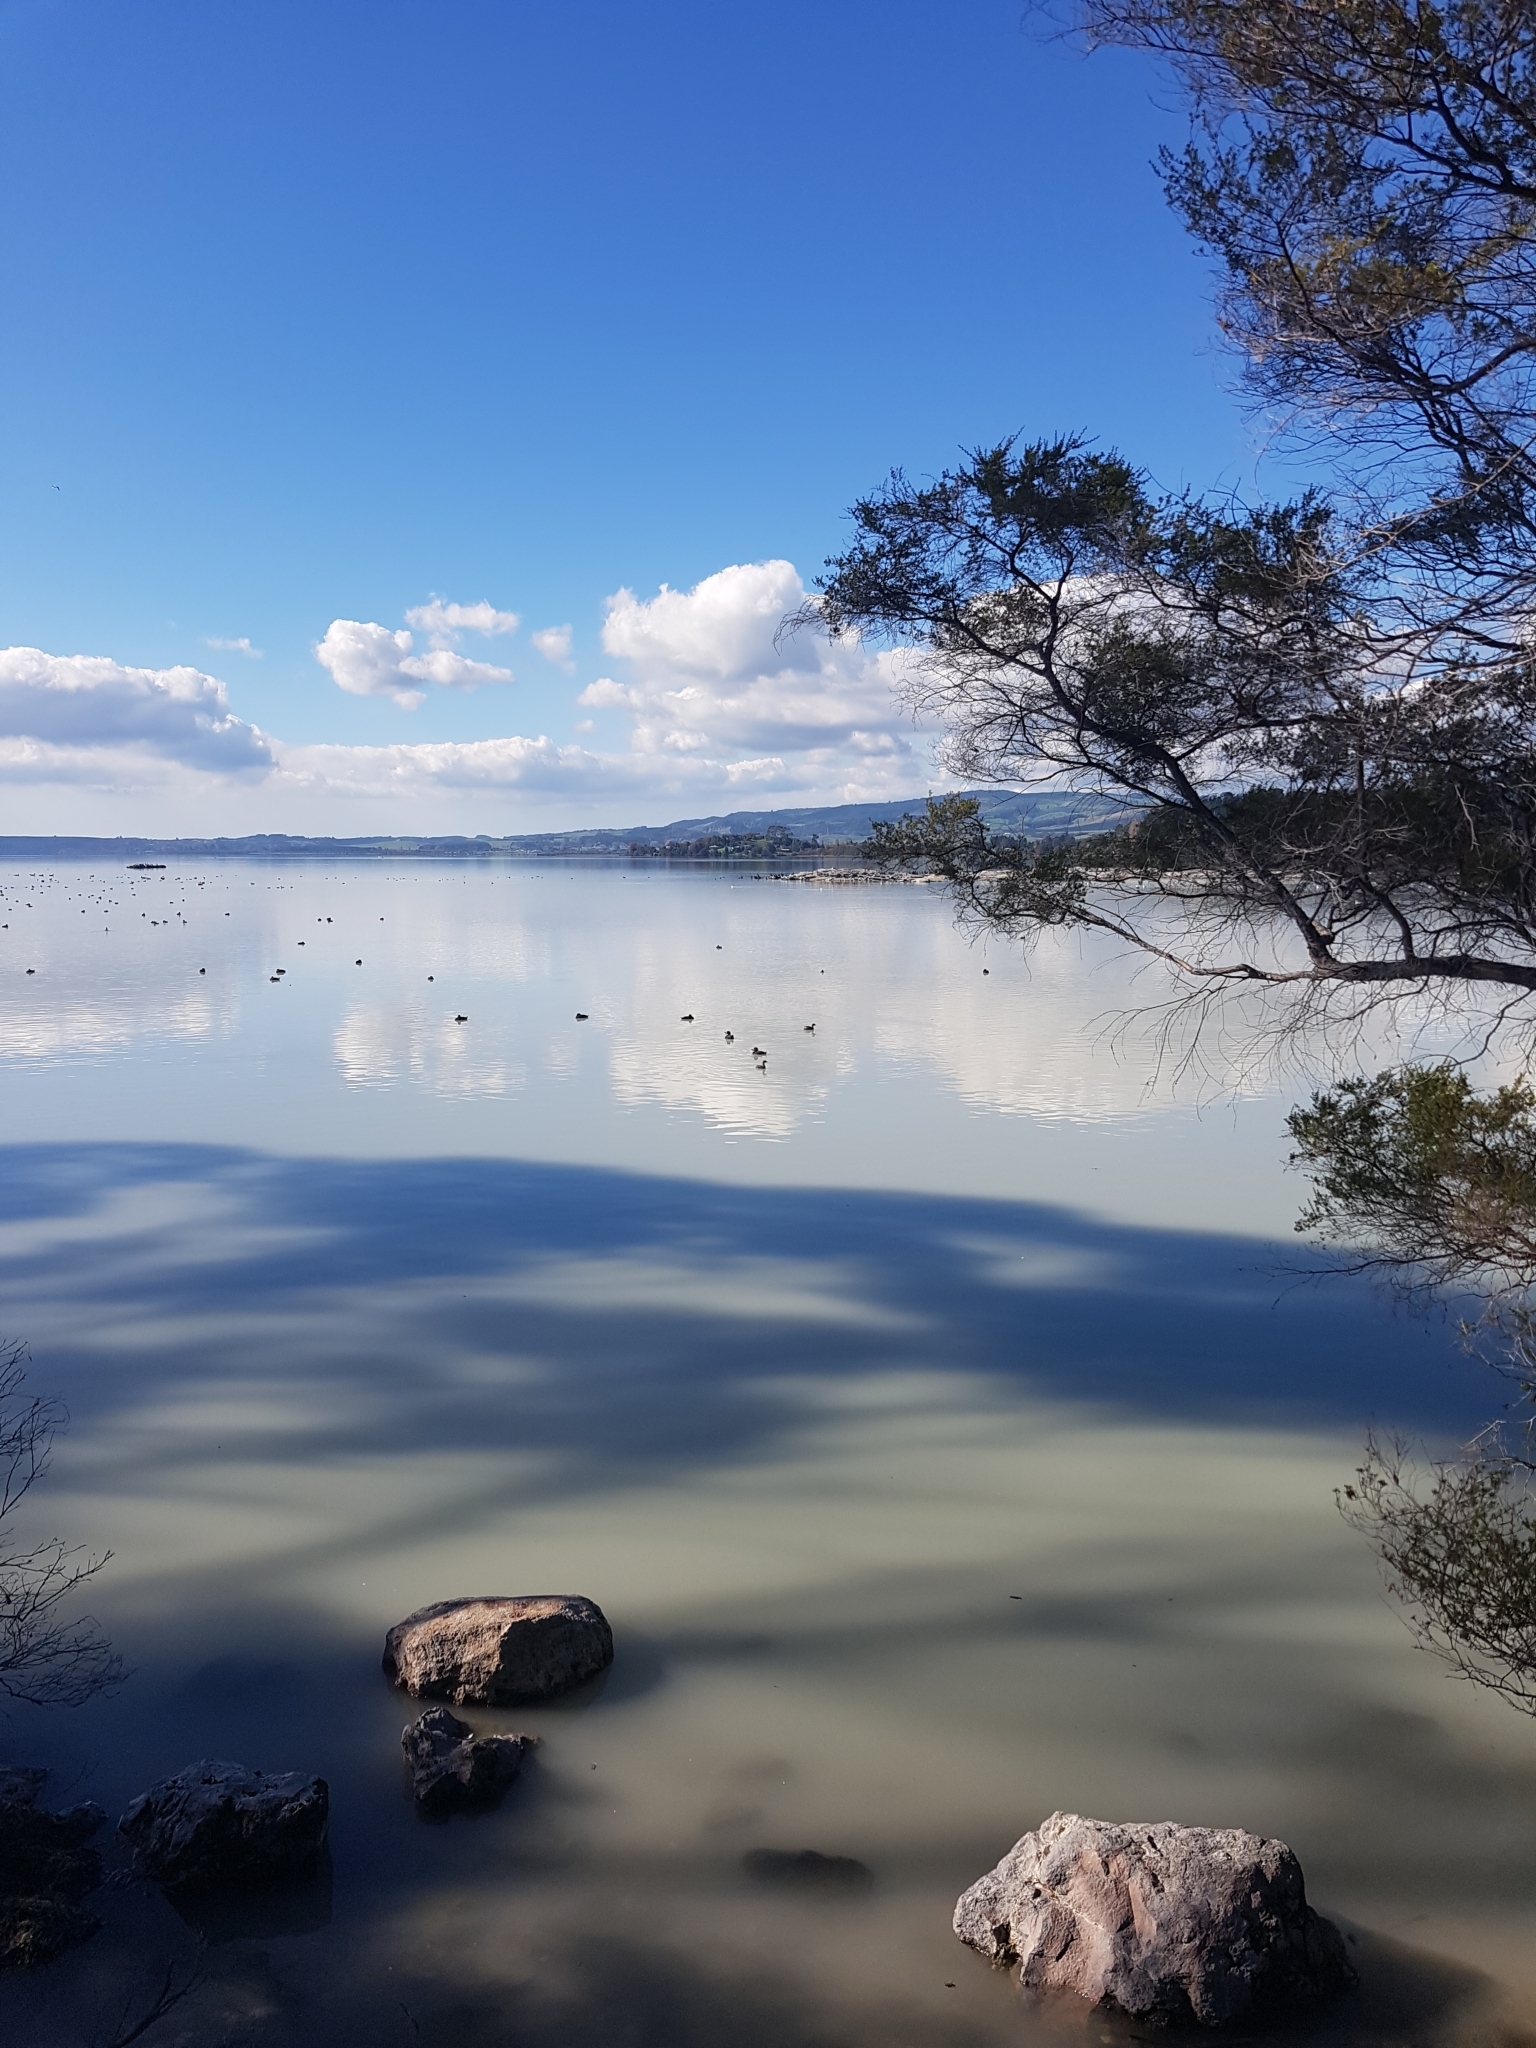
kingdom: Animalia
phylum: Chordata
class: Aves
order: Podicipediformes
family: Podicipedidae
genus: Poliocephalus
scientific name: Poliocephalus rufopectus
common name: New zealand grebe
